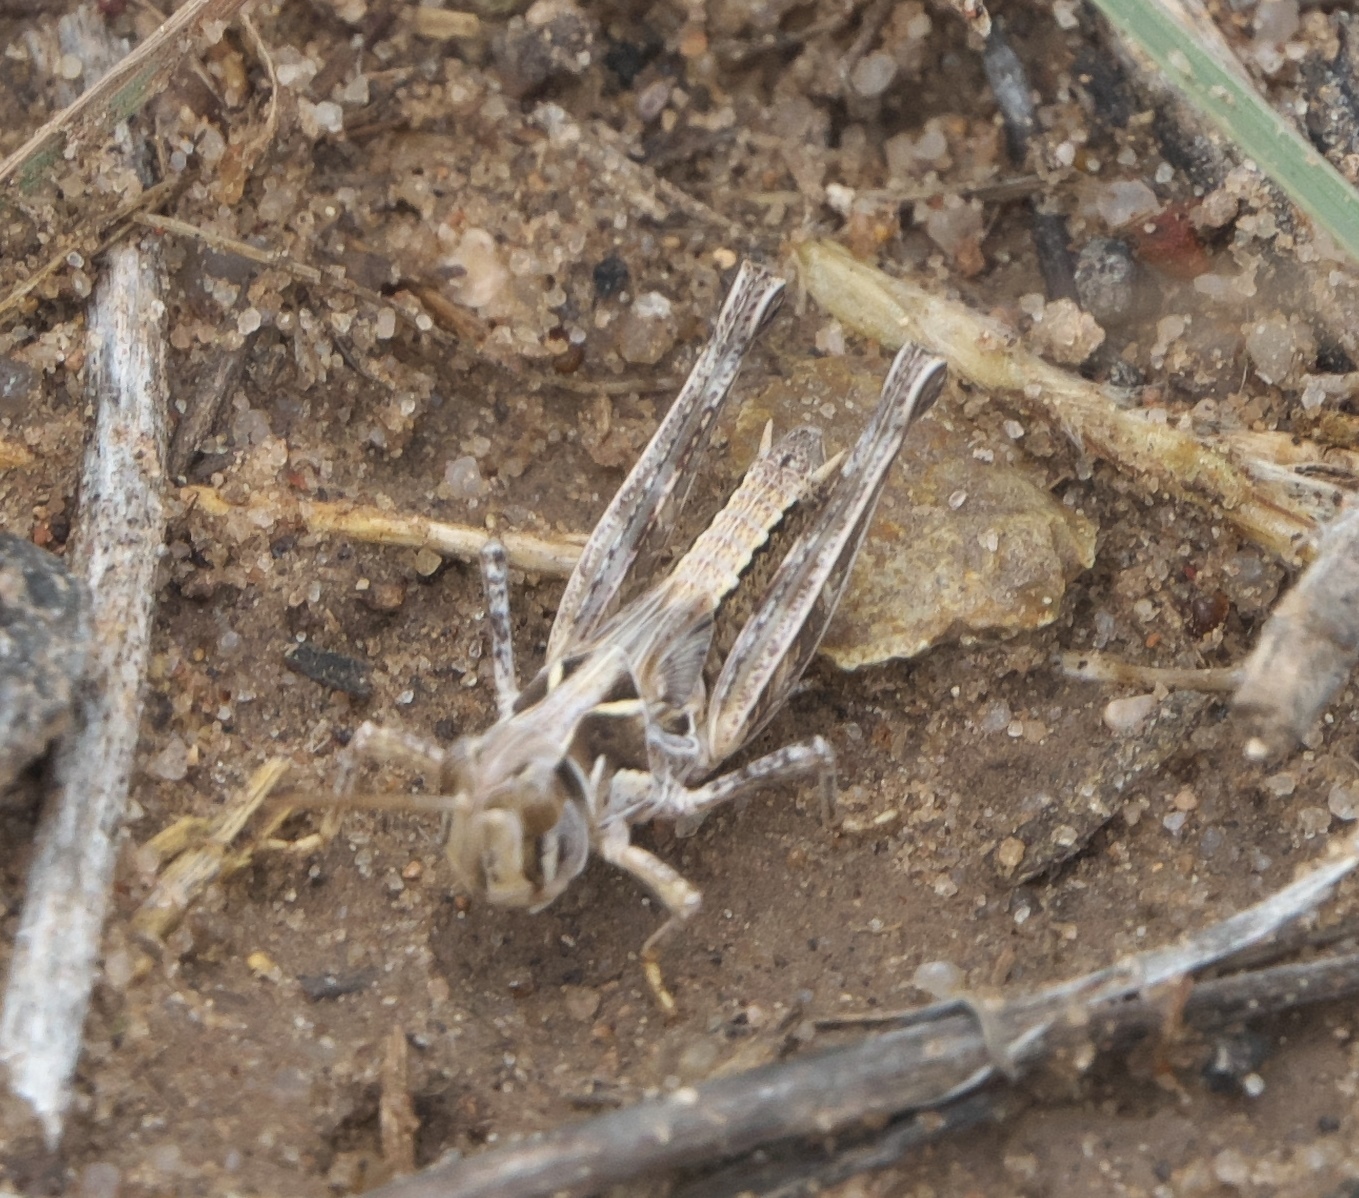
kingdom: Animalia
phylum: Arthropoda
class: Insecta
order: Orthoptera
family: Acrididae
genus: Phlibostroma
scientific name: Phlibostroma quadrimaculatum
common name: Four-spotted grasshopper
